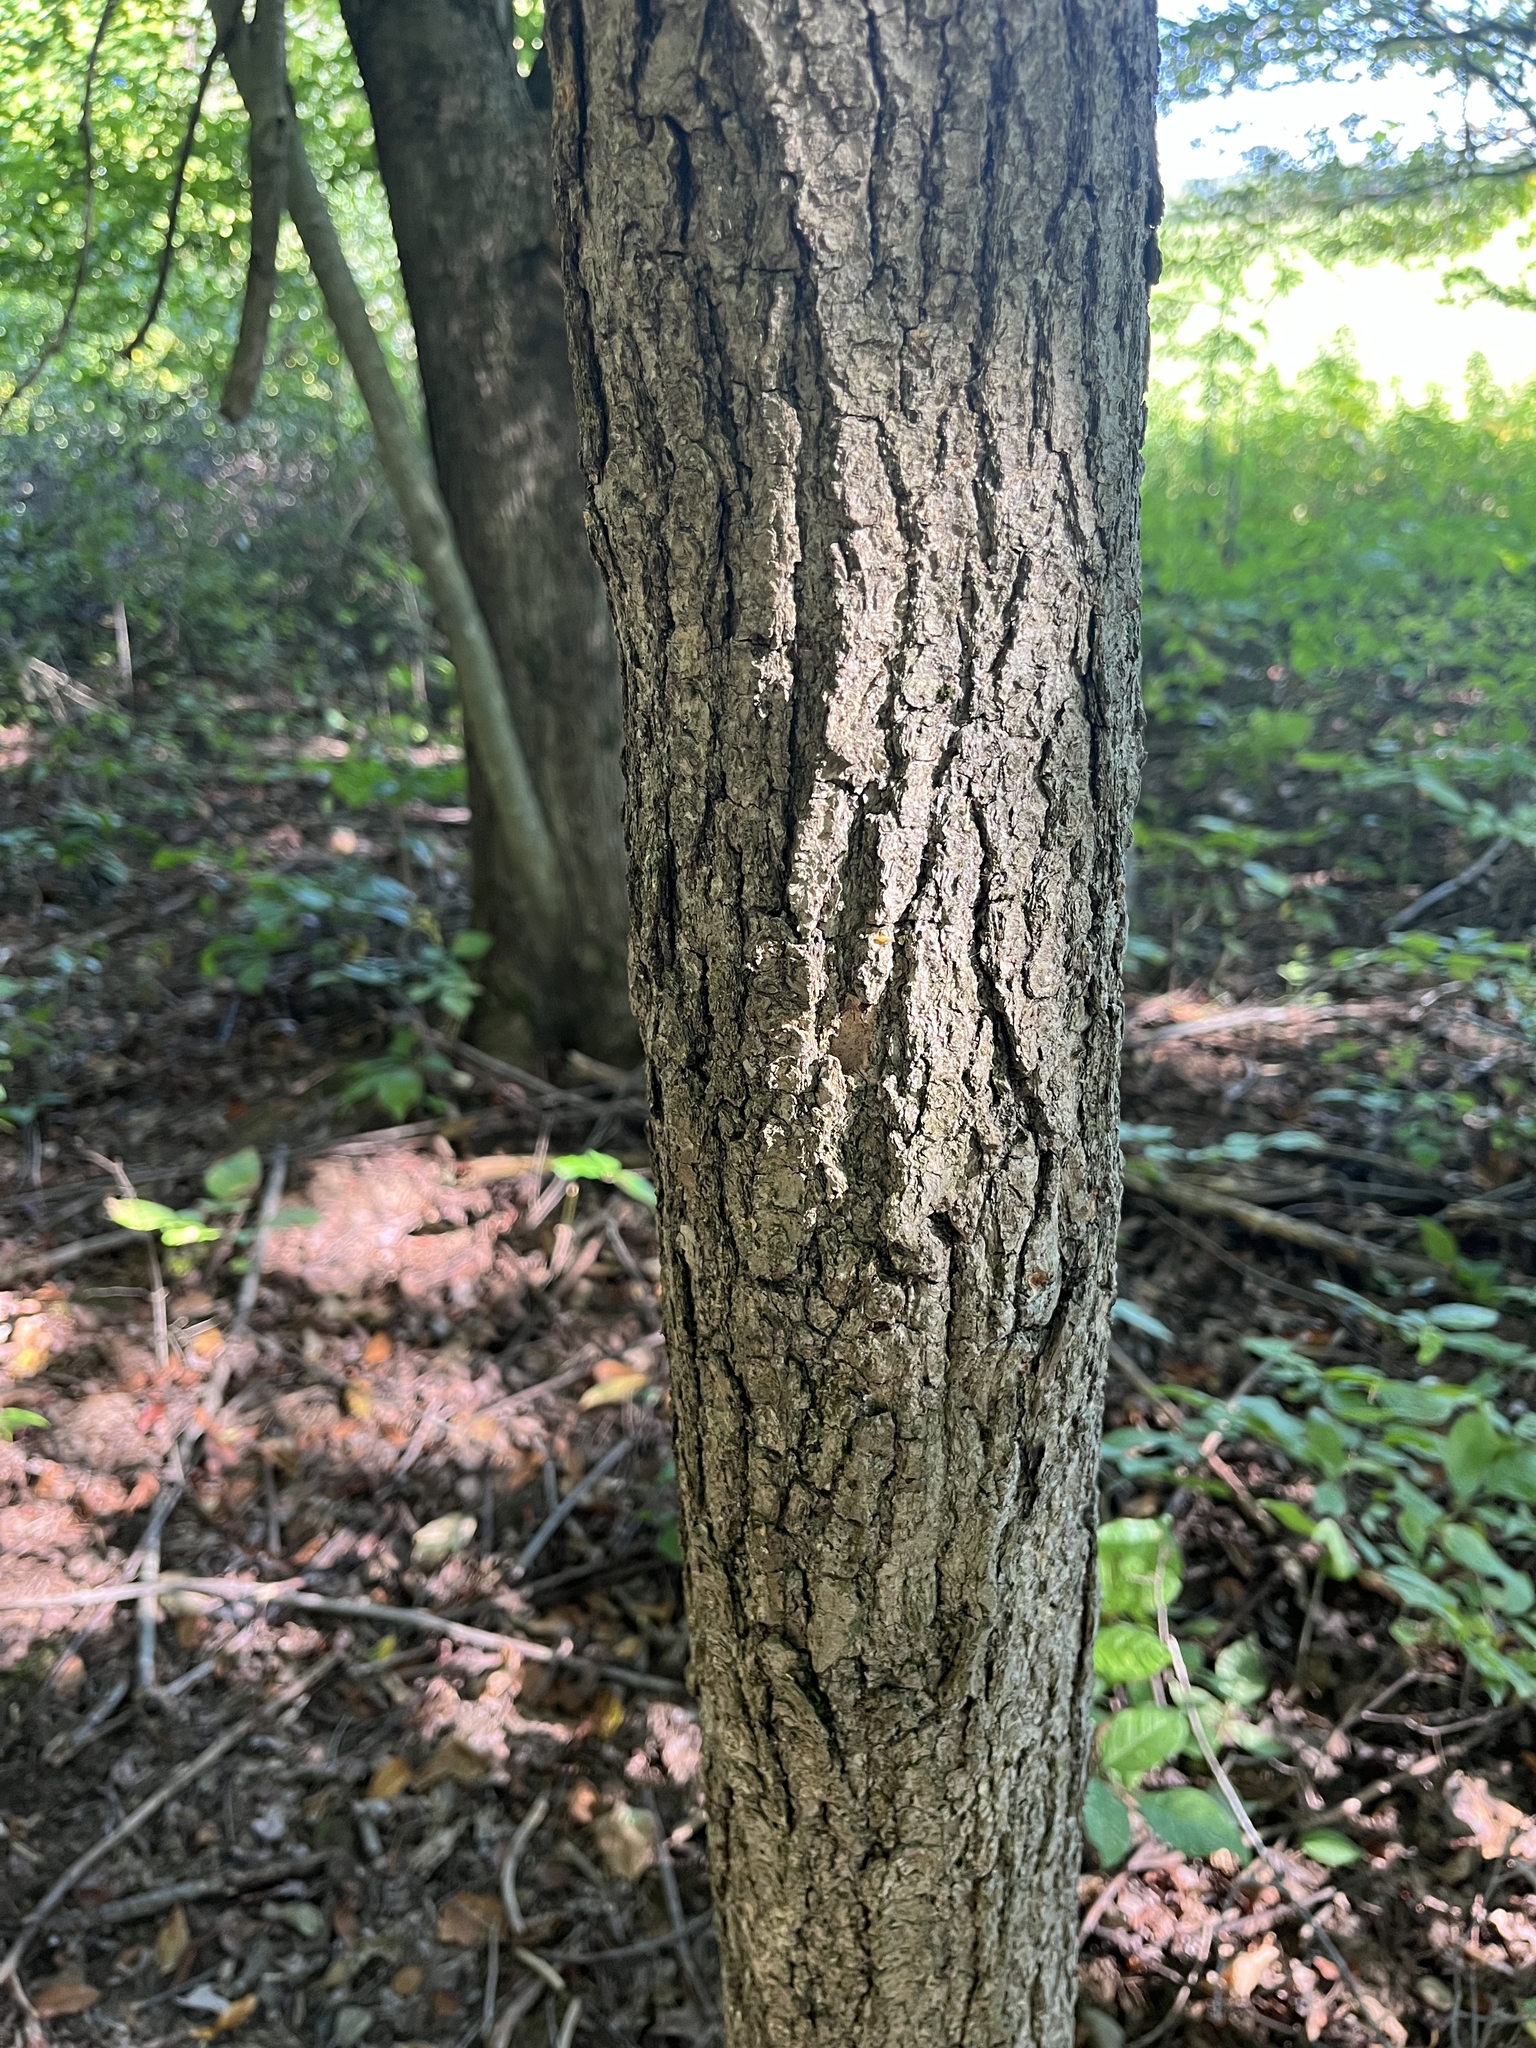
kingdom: Plantae
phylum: Tracheophyta
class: Magnoliopsida
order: Cornales
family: Nyssaceae
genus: Nyssa
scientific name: Nyssa sylvatica
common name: Black tupelo
